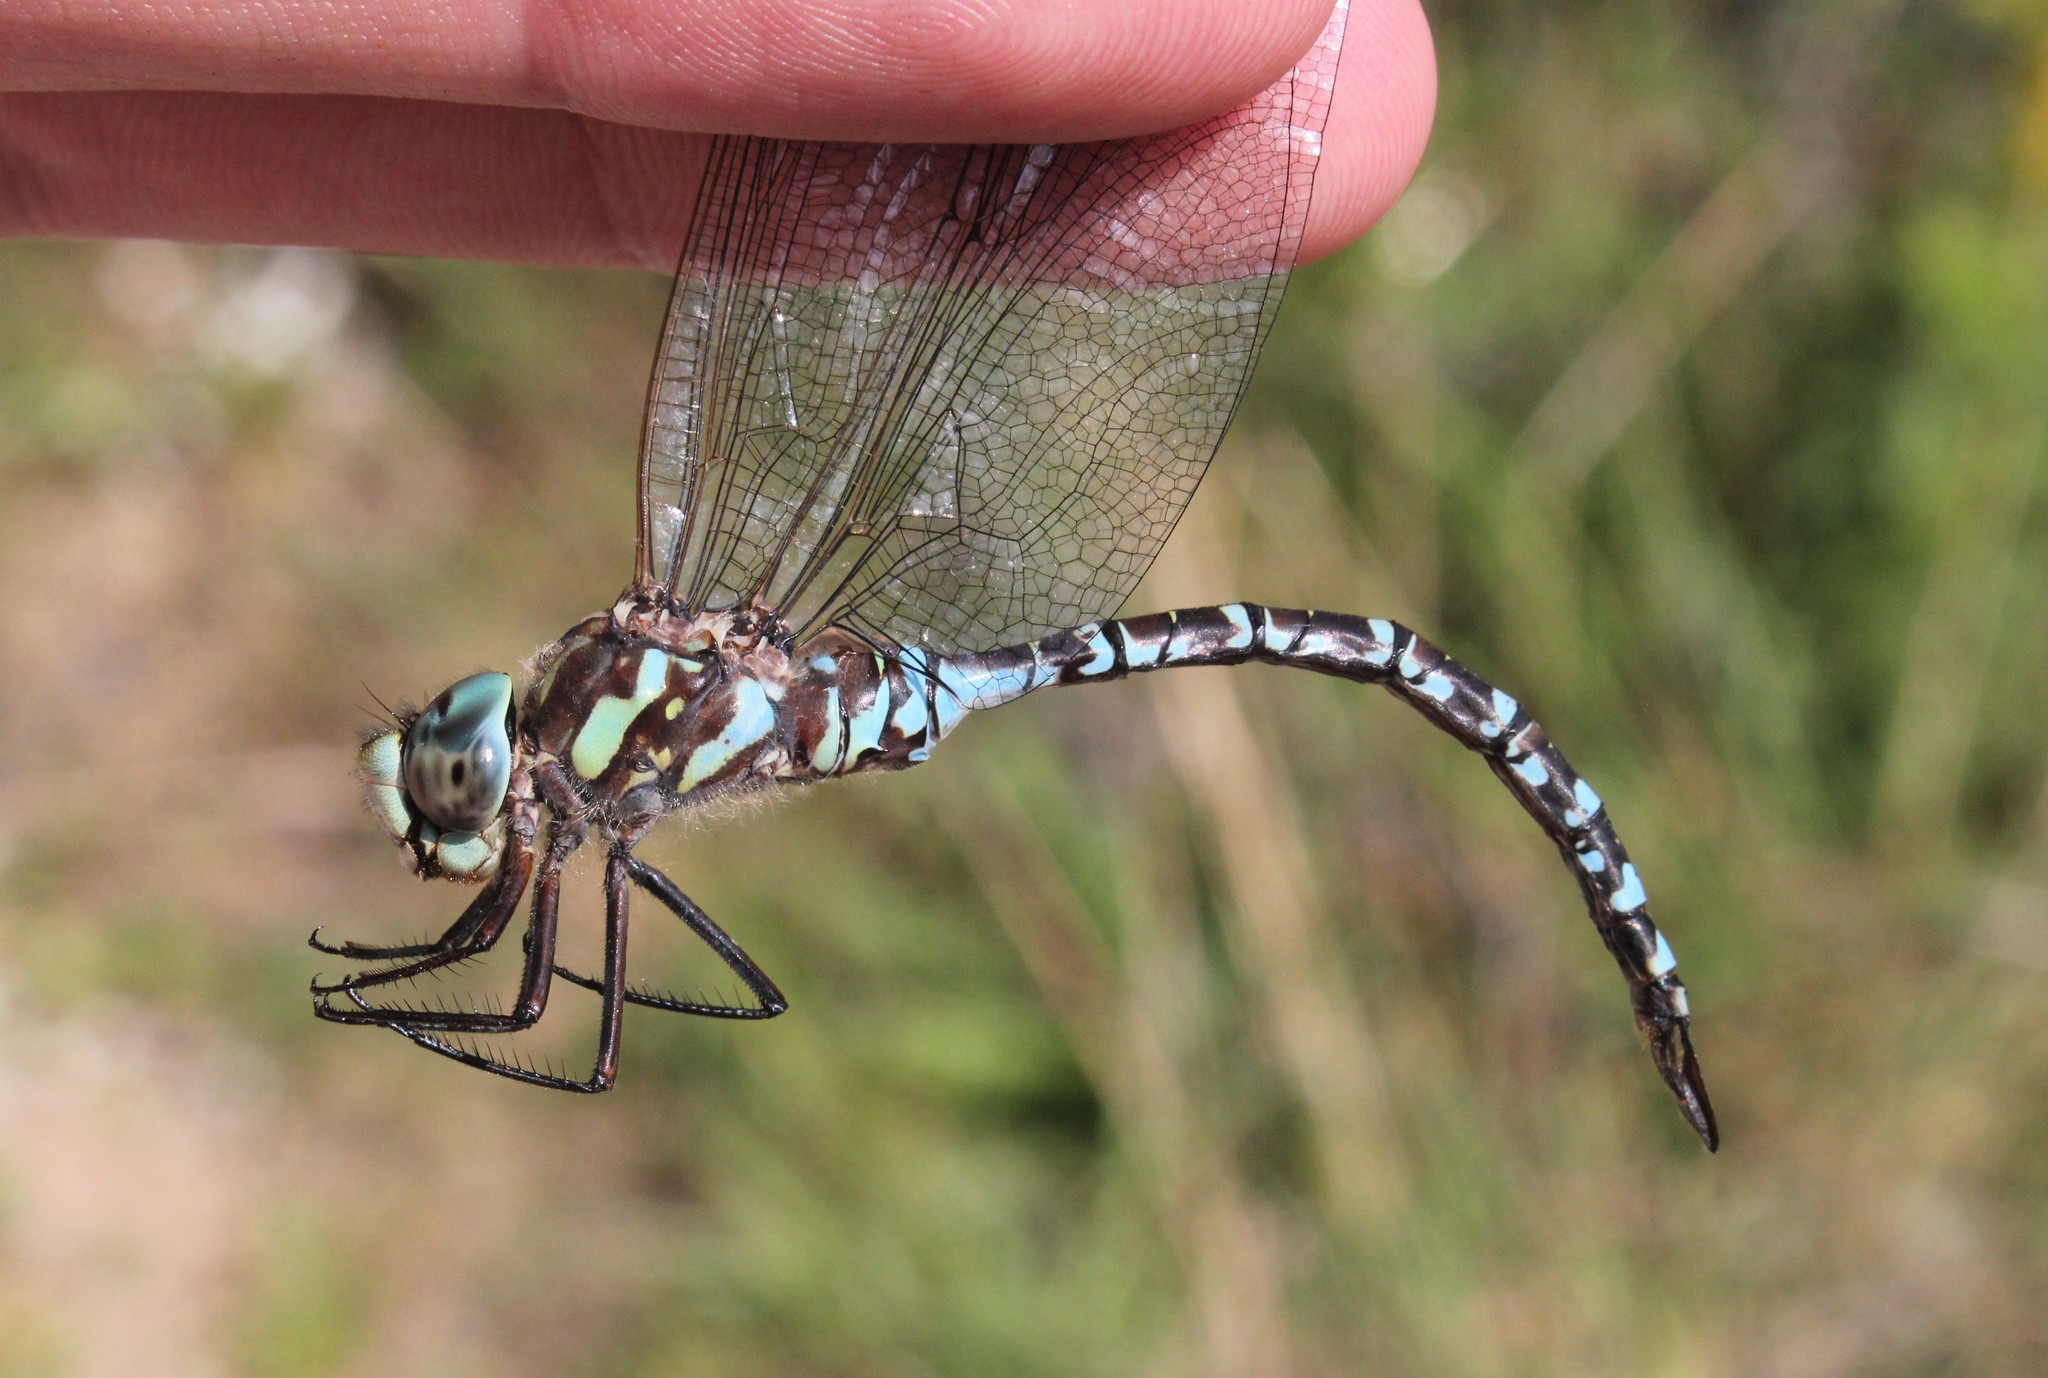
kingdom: Animalia
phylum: Arthropoda
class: Insecta
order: Odonata
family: Aeshnidae
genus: Aeshna
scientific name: Aeshna canadensis
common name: Canada darner
